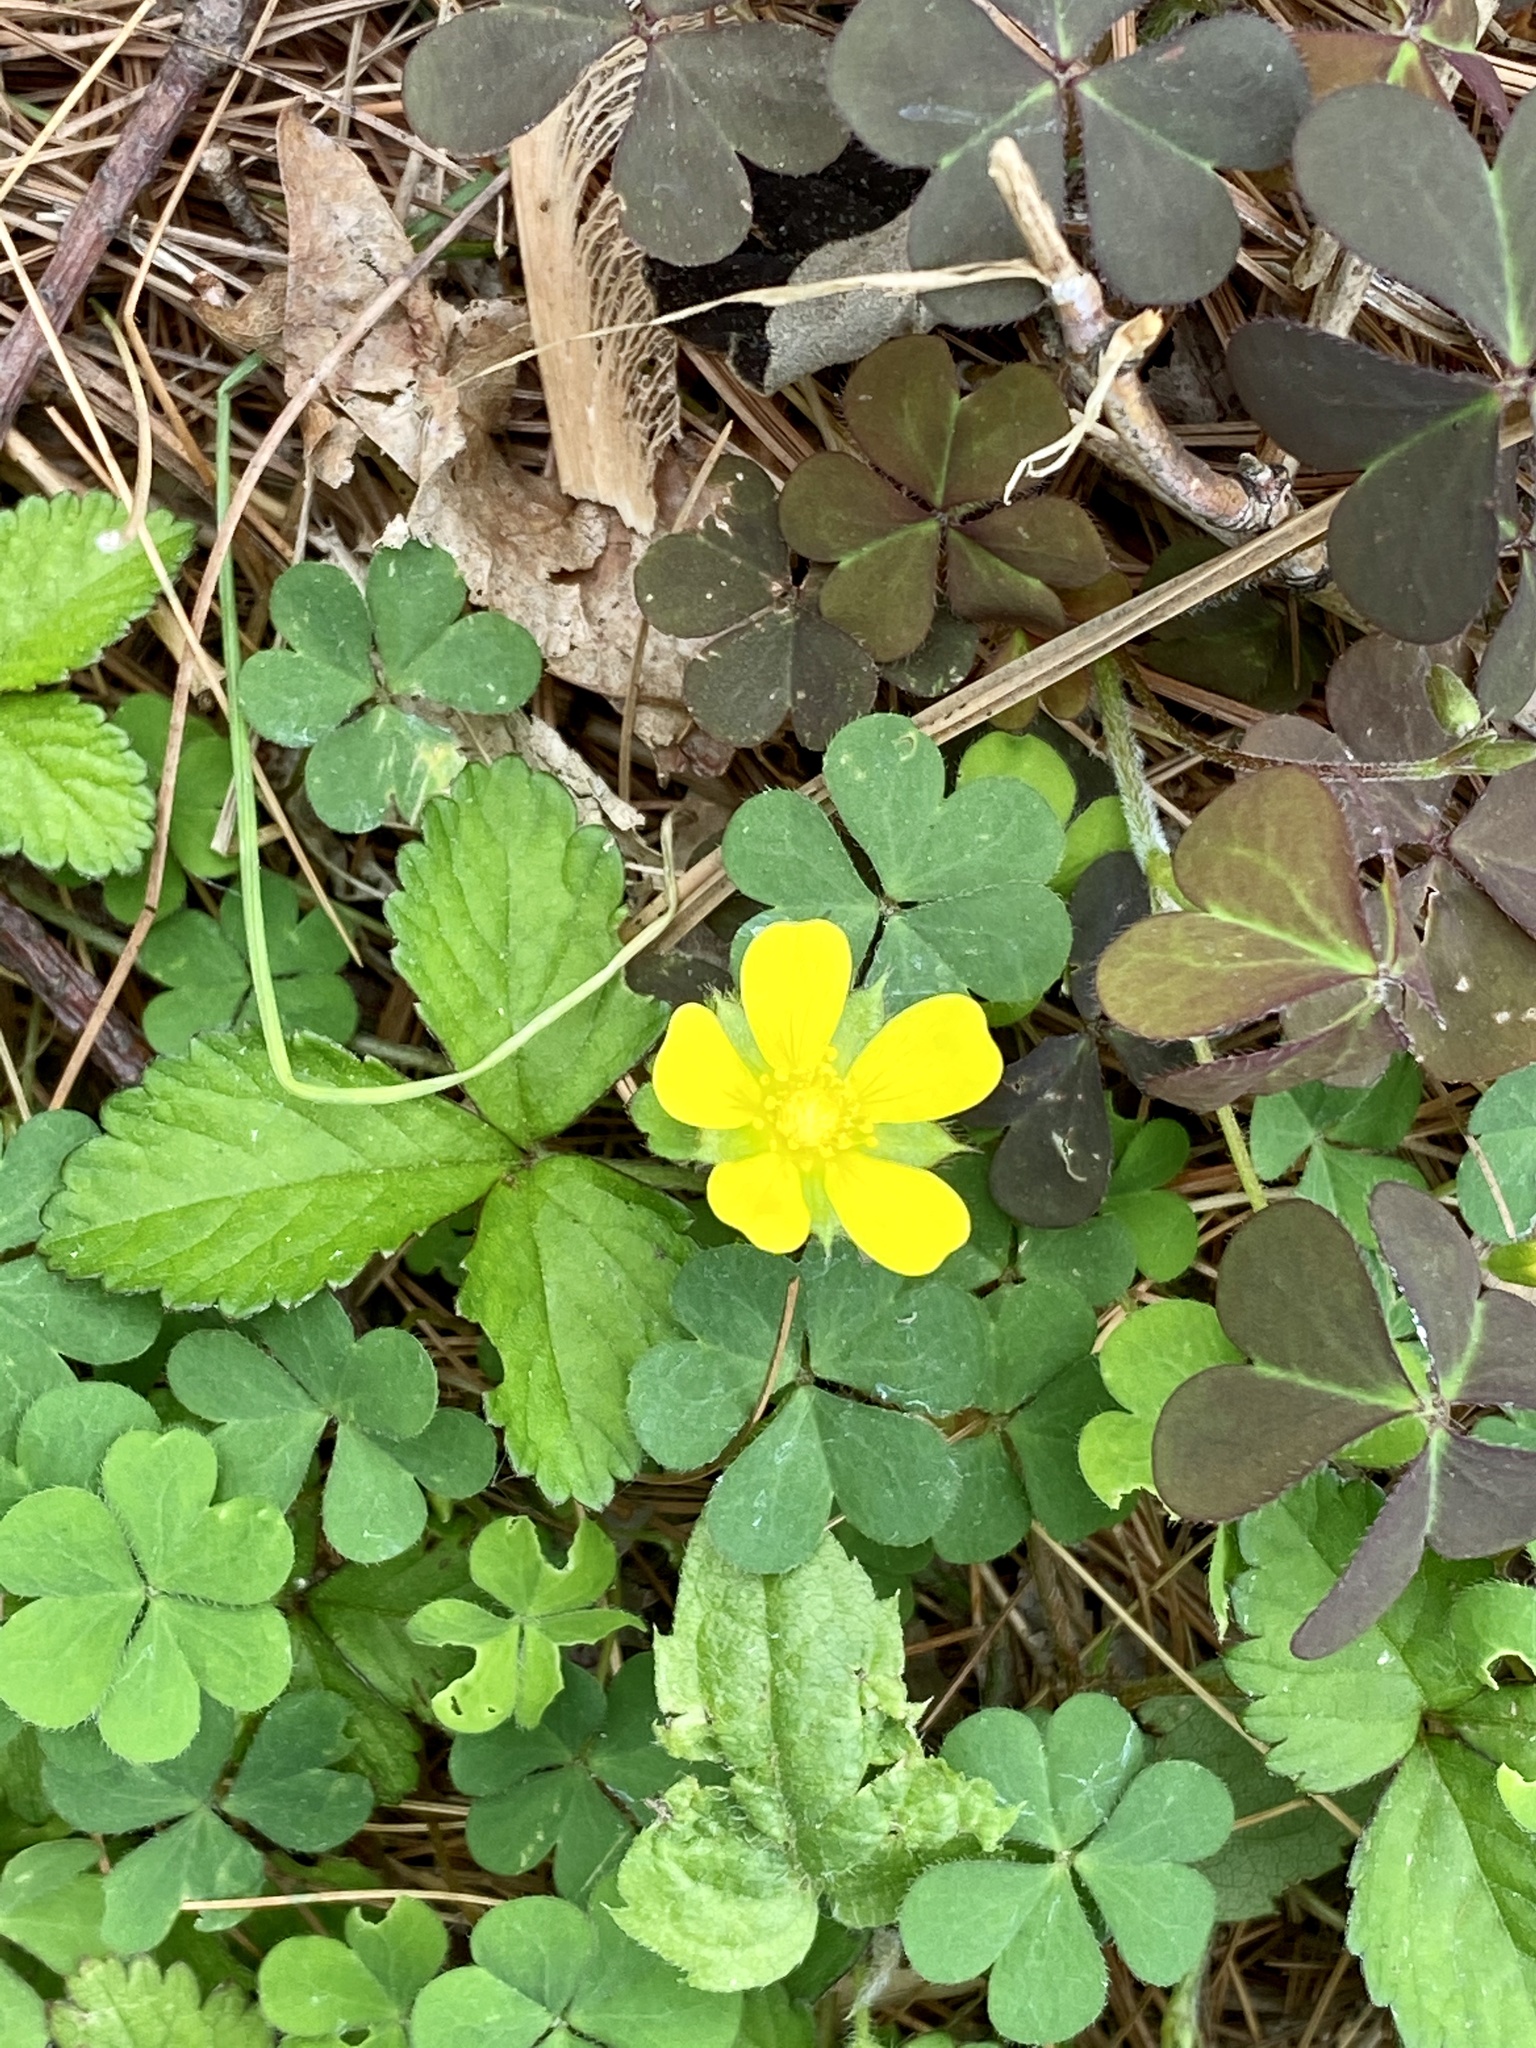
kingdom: Plantae
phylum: Tracheophyta
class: Magnoliopsida
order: Rosales
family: Rosaceae
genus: Potentilla
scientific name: Potentilla indica
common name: Yellow-flowered strawberry
